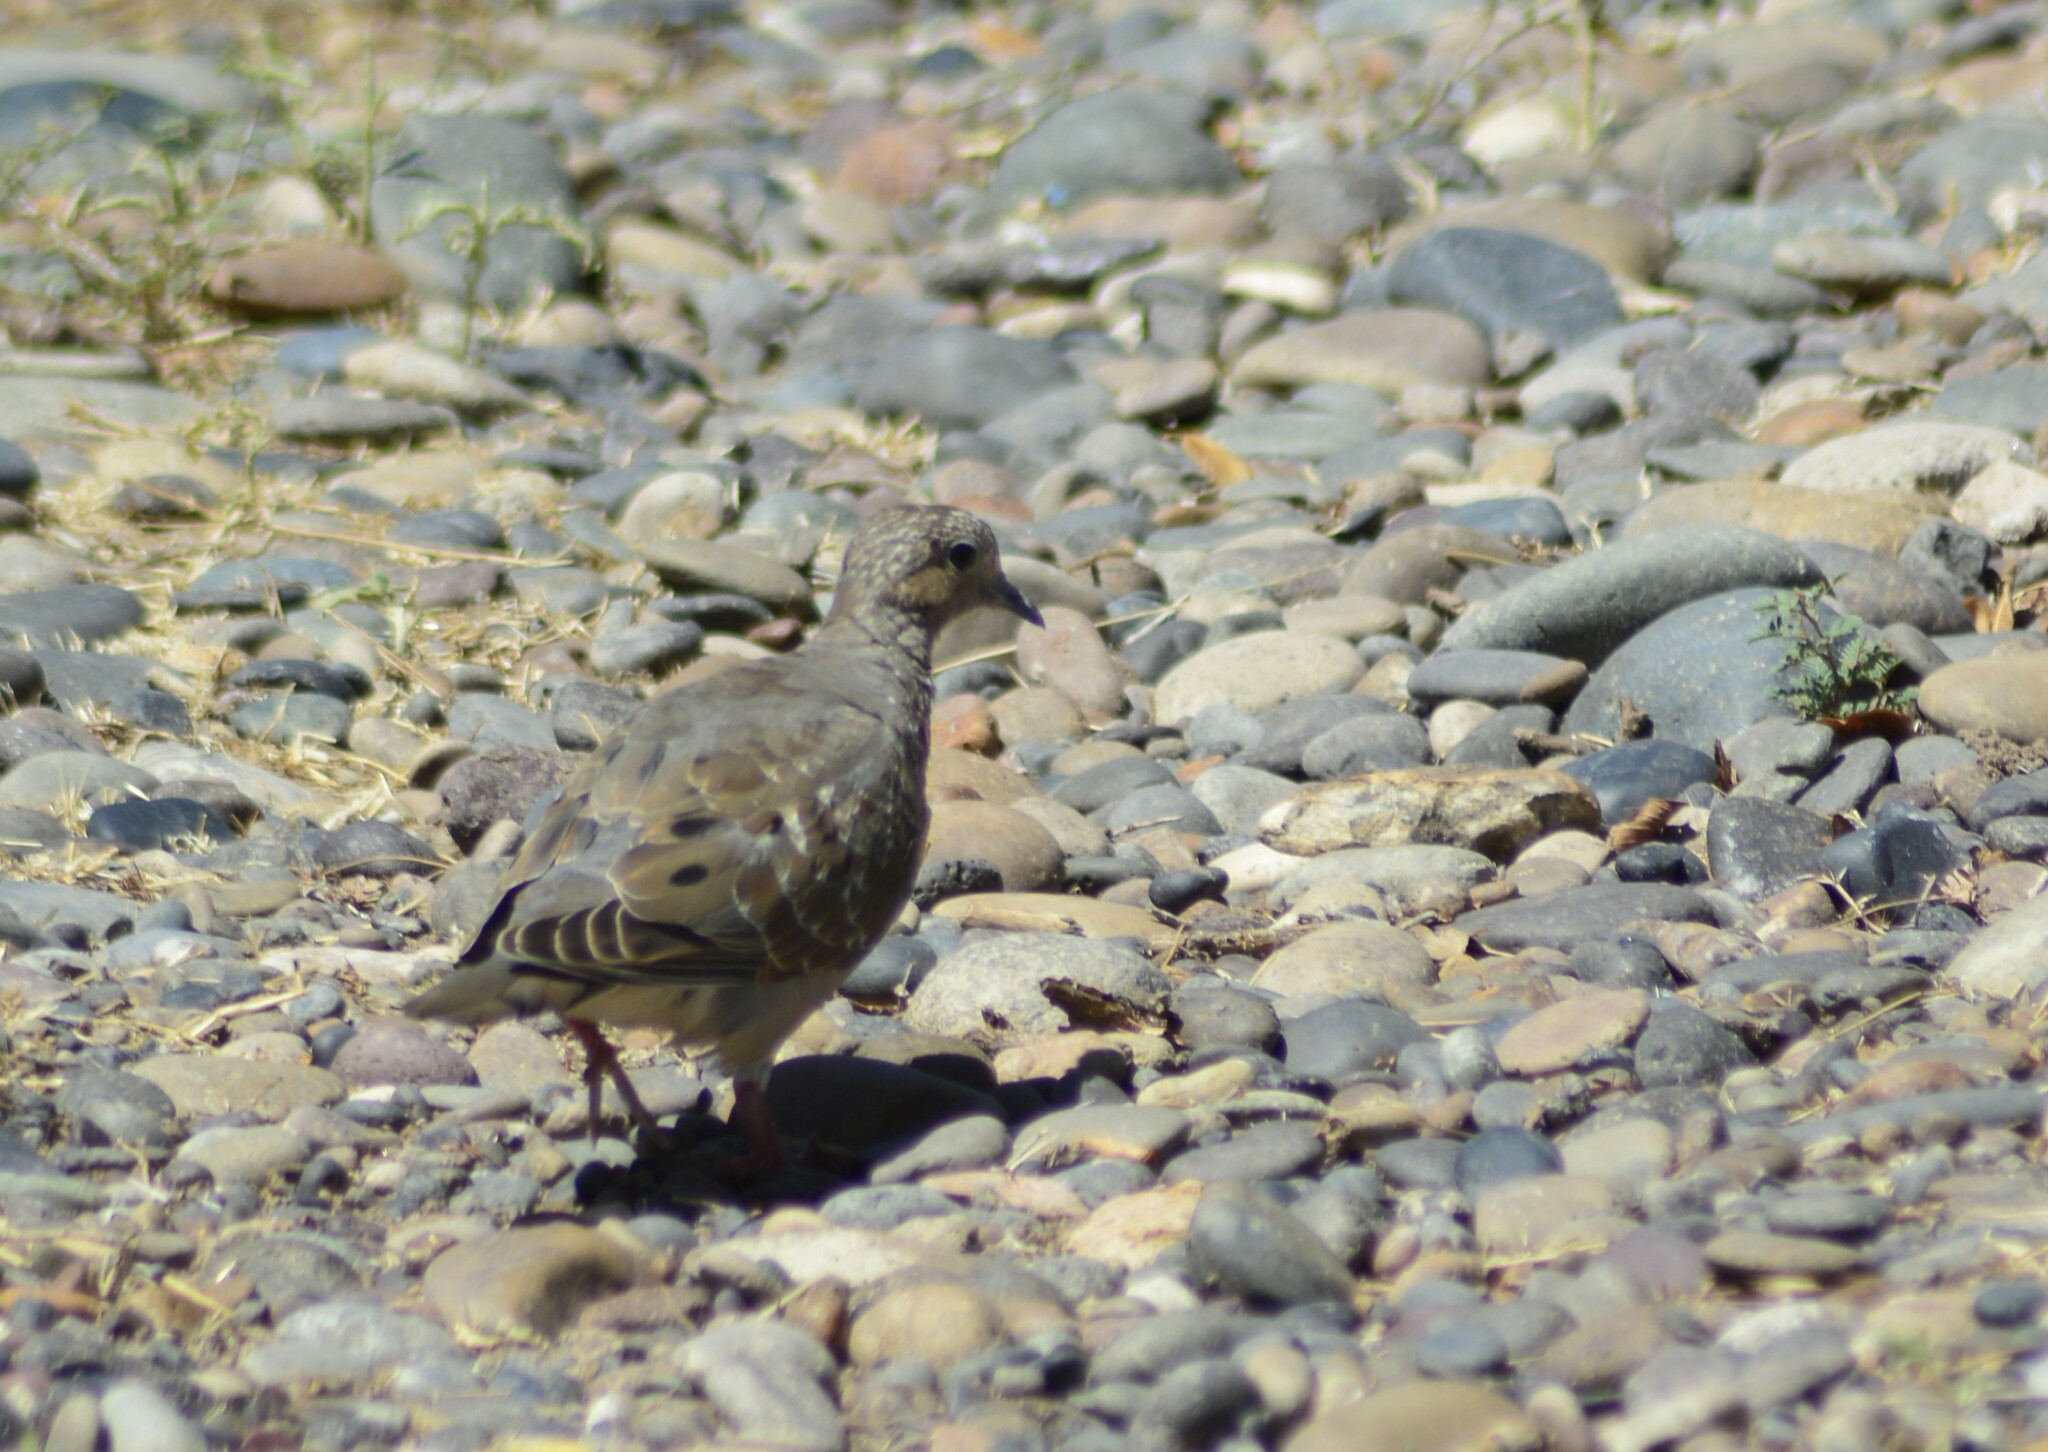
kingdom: Animalia
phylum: Chordata
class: Aves
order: Columbiformes
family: Columbidae
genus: Zenaida
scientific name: Zenaida auriculata
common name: Eared dove
